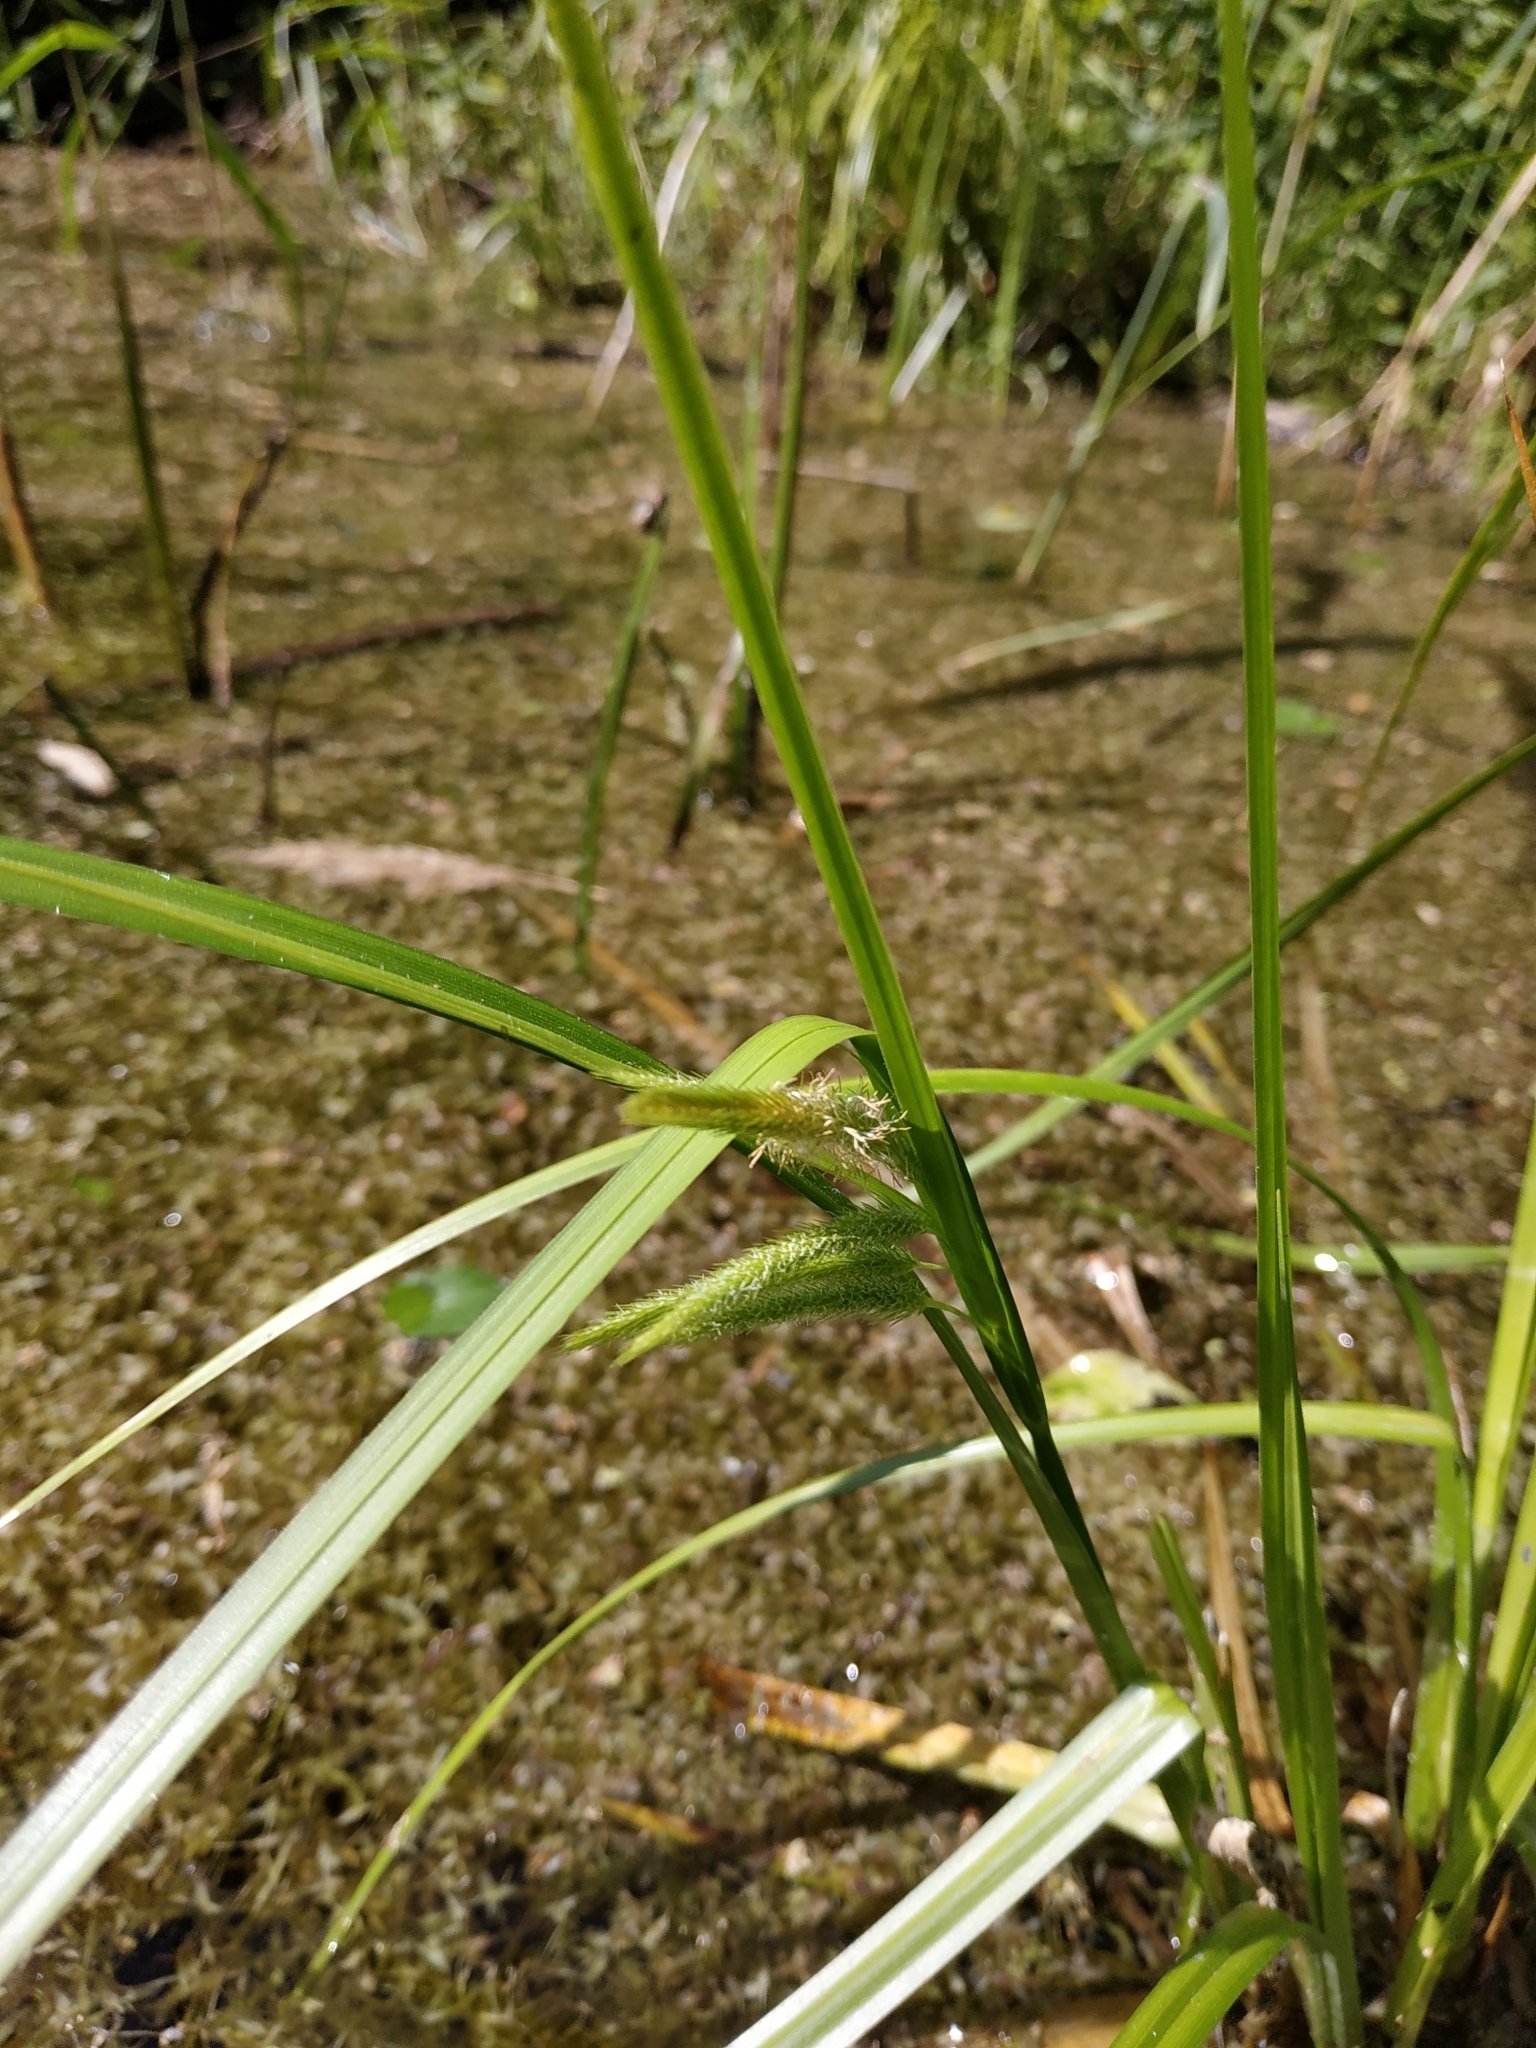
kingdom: Plantae
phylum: Tracheophyta
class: Liliopsida
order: Poales
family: Cyperaceae
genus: Carex
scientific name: Carex pseudocyperus
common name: Cyperus sedge
